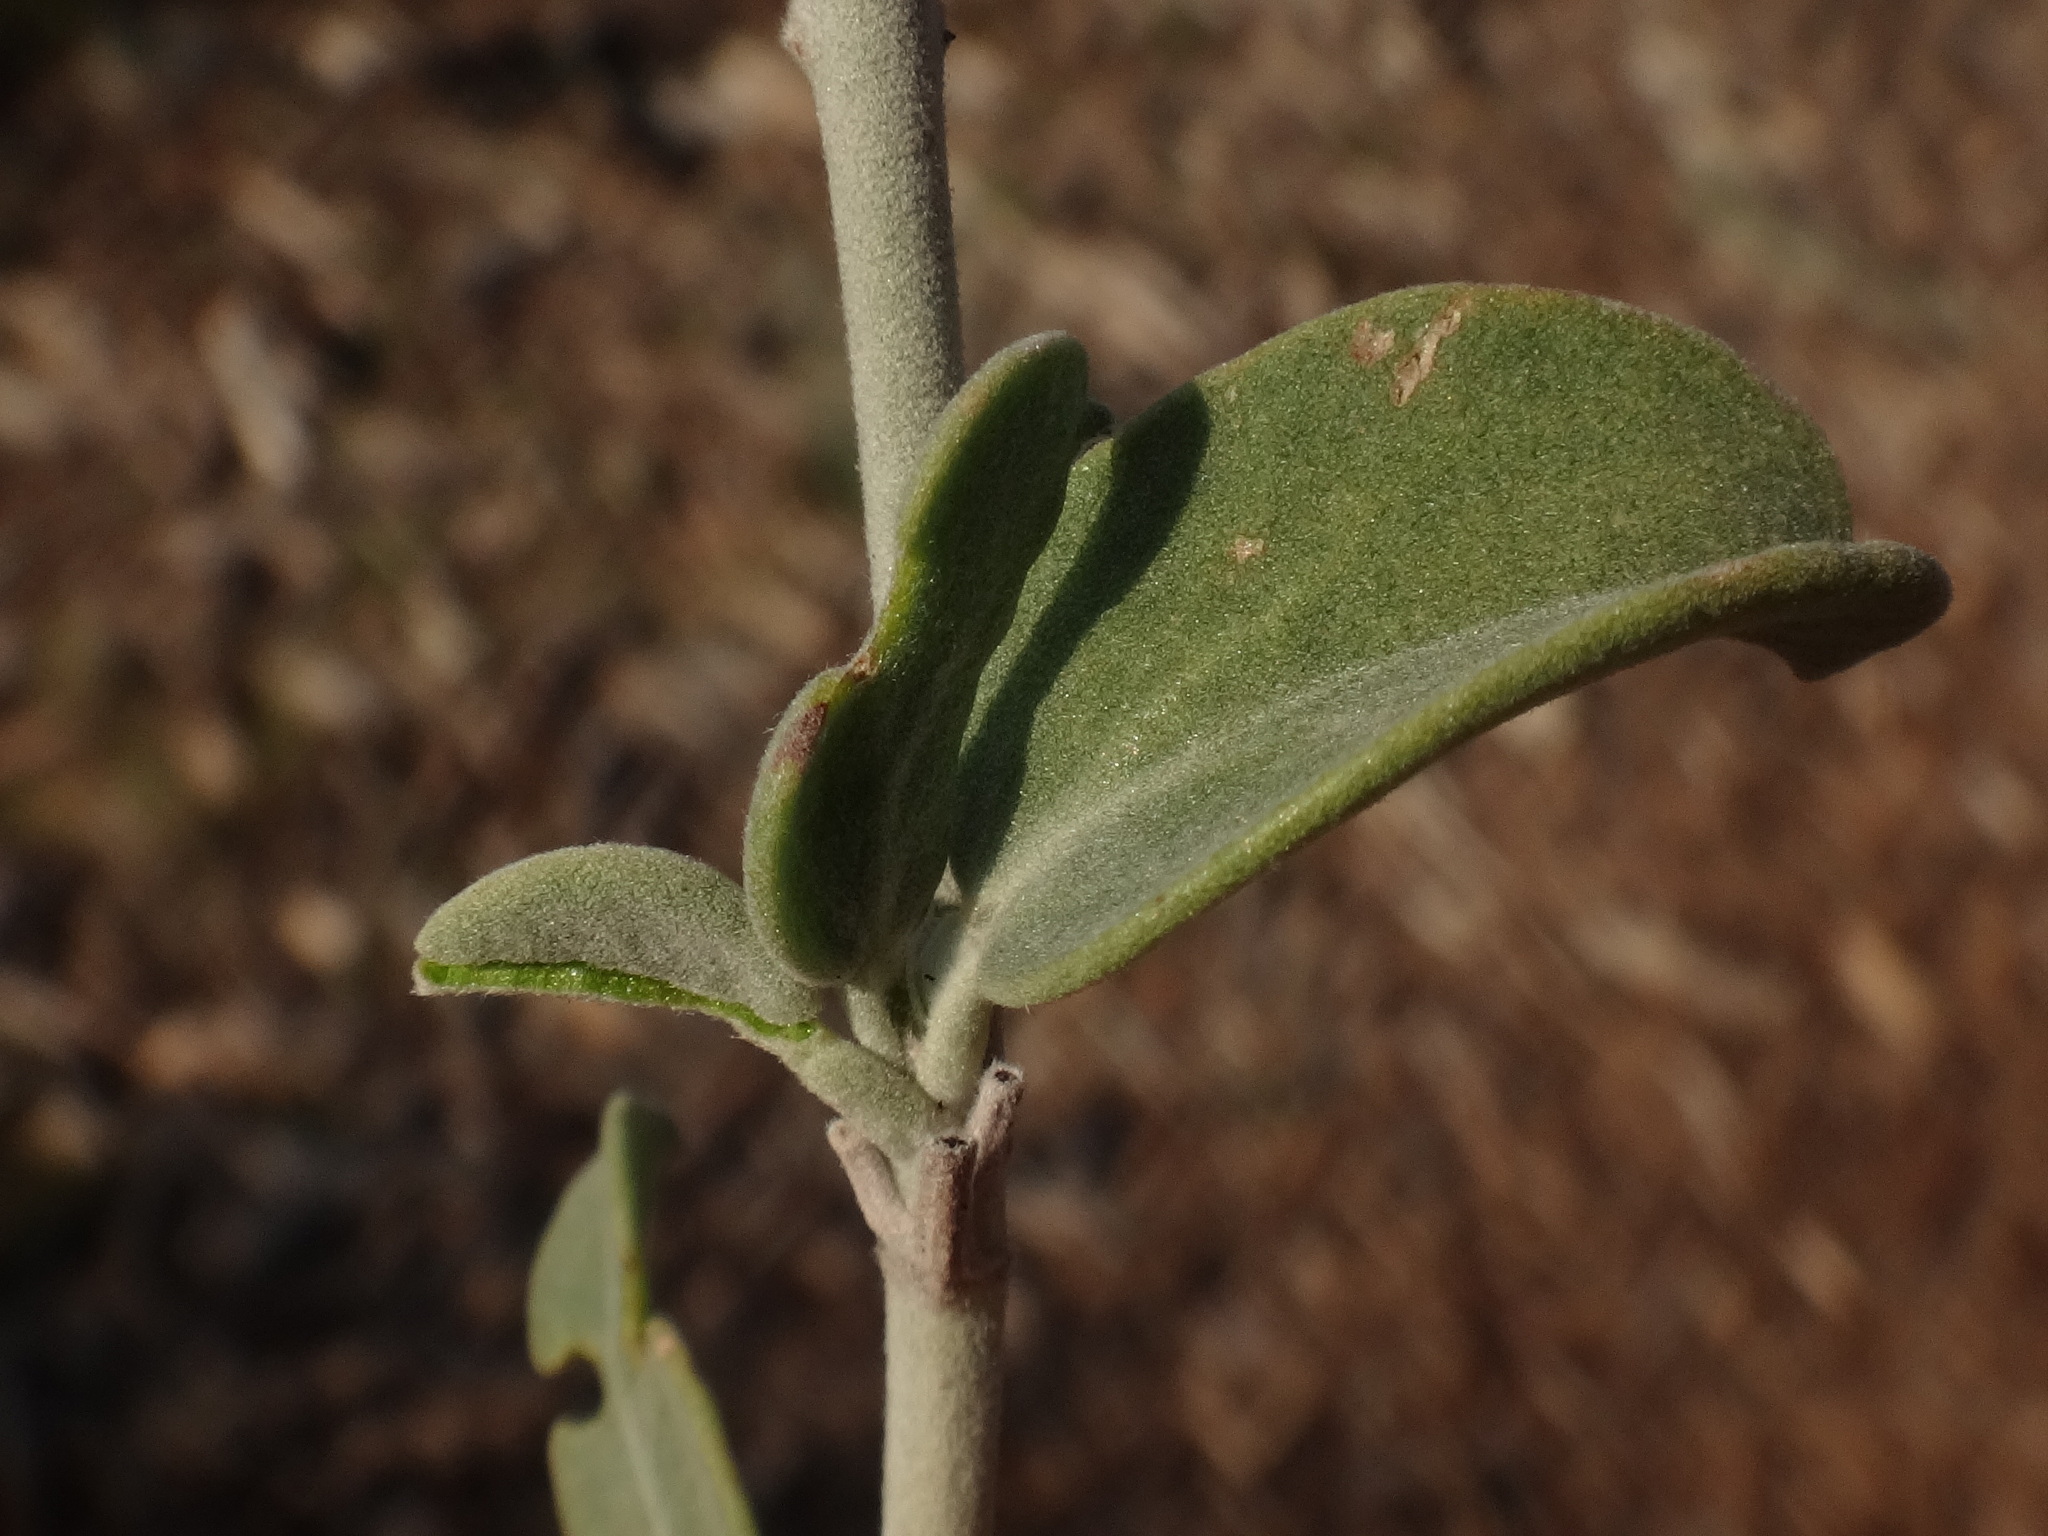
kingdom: Plantae
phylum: Tracheophyta
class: Magnoliopsida
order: Fabales
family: Fabaceae
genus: Anthyllis
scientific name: Anthyllis cytisoides
